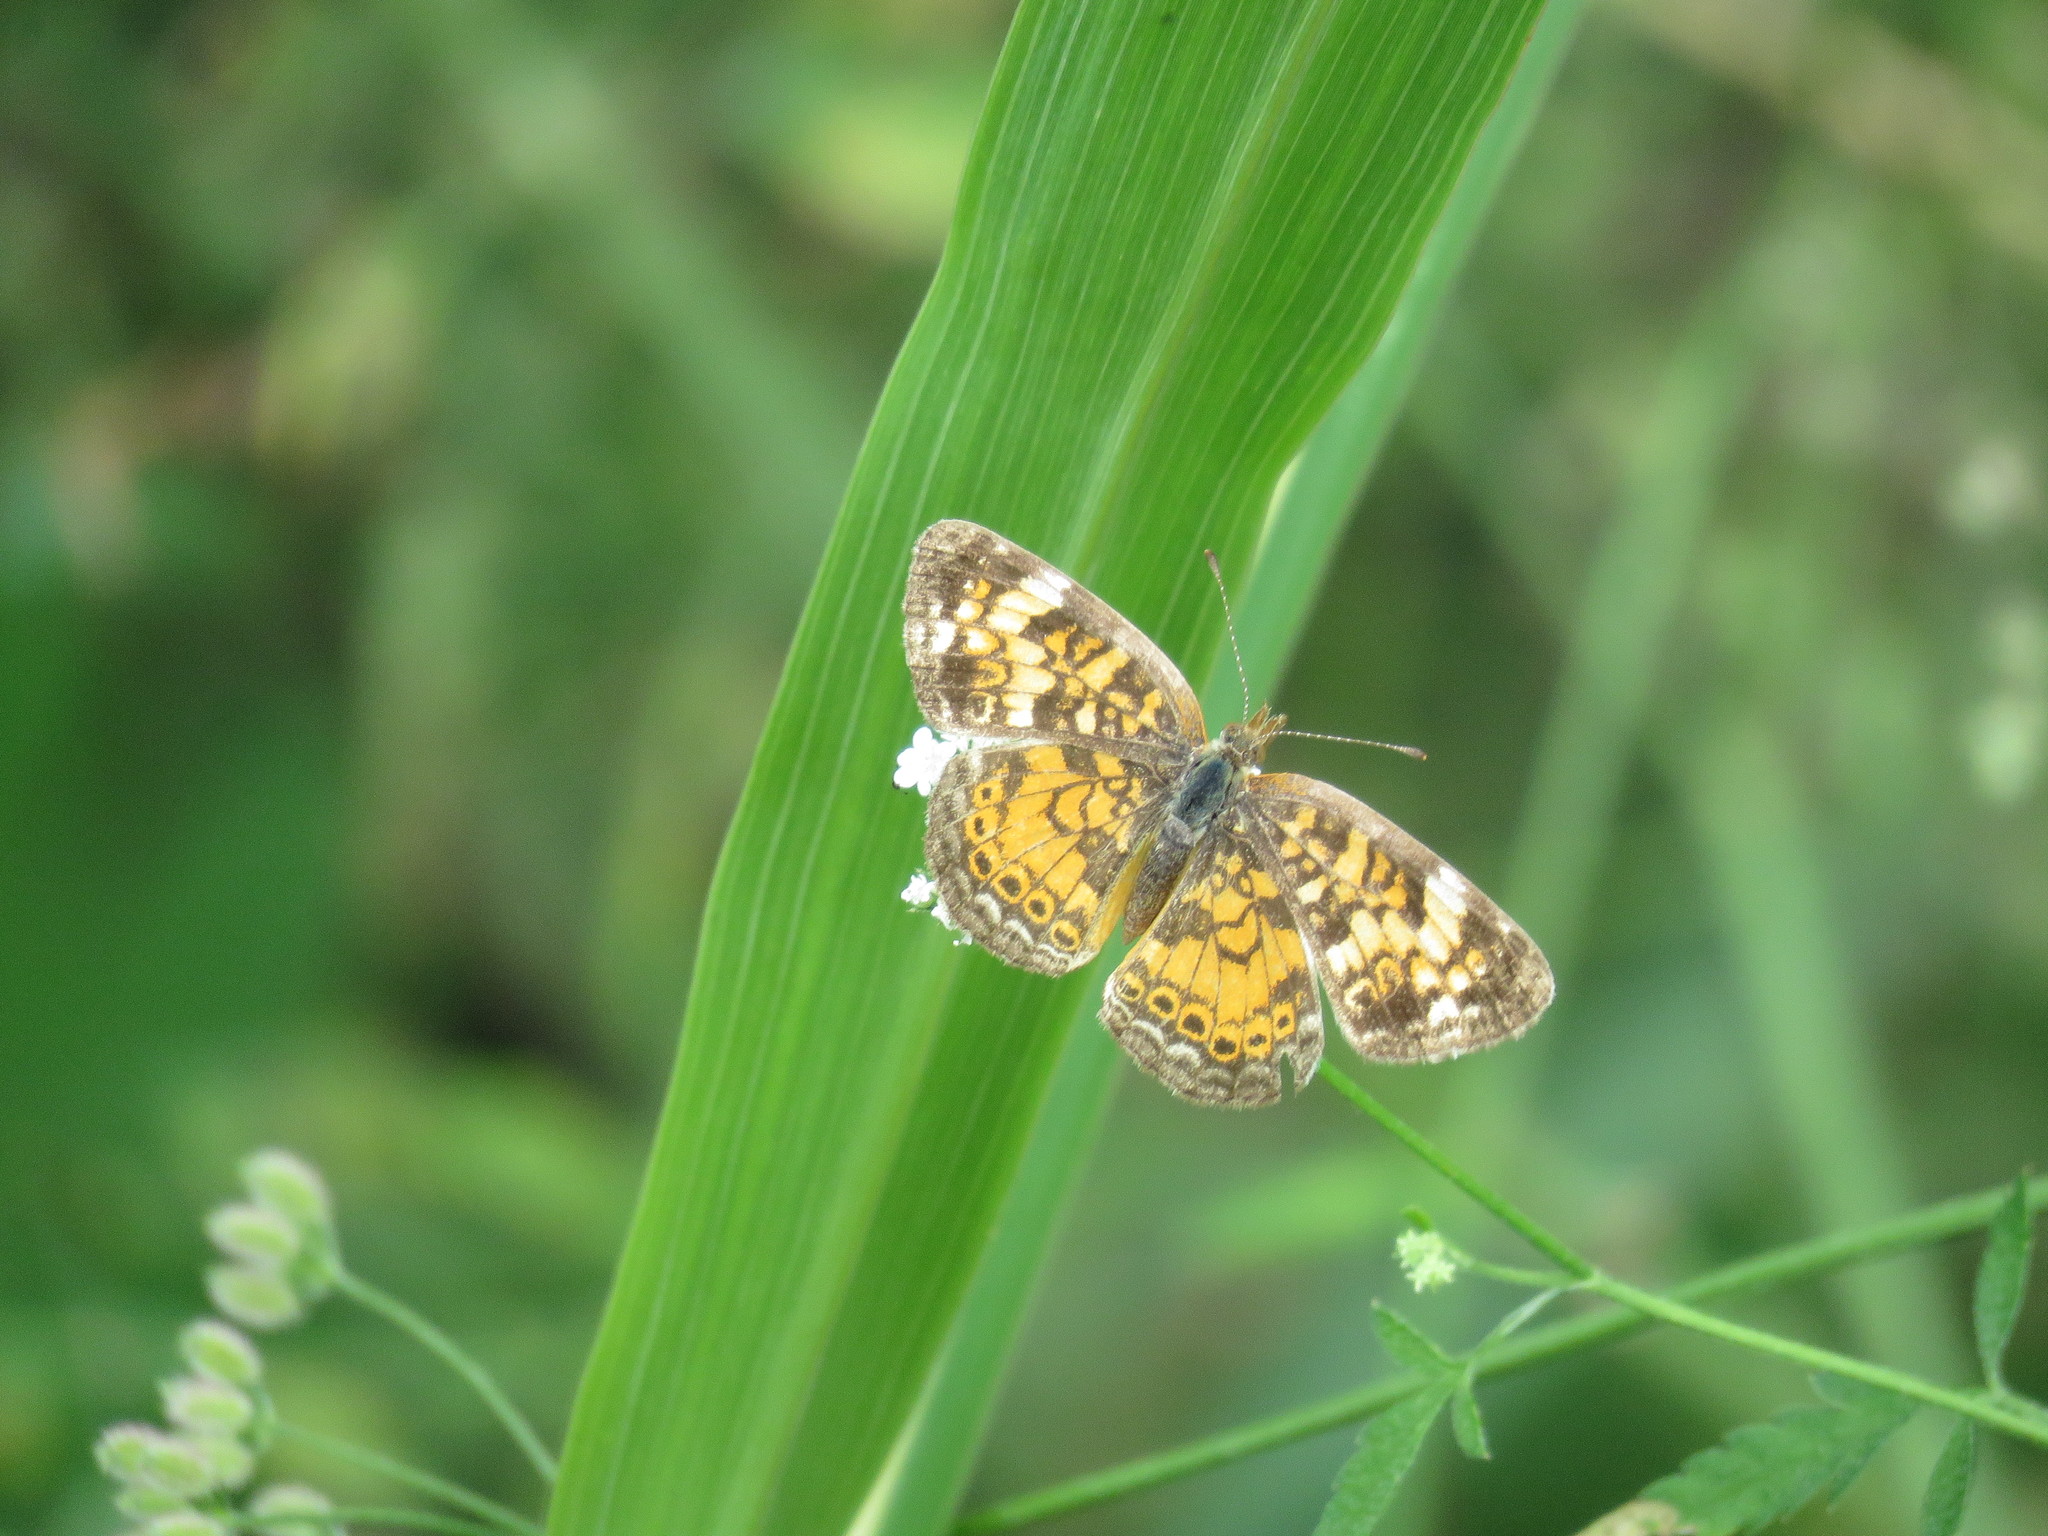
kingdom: Animalia
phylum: Arthropoda
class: Insecta
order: Lepidoptera
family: Nymphalidae
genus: Phyciodes
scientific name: Phyciodes phaon
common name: Phaon crescent
